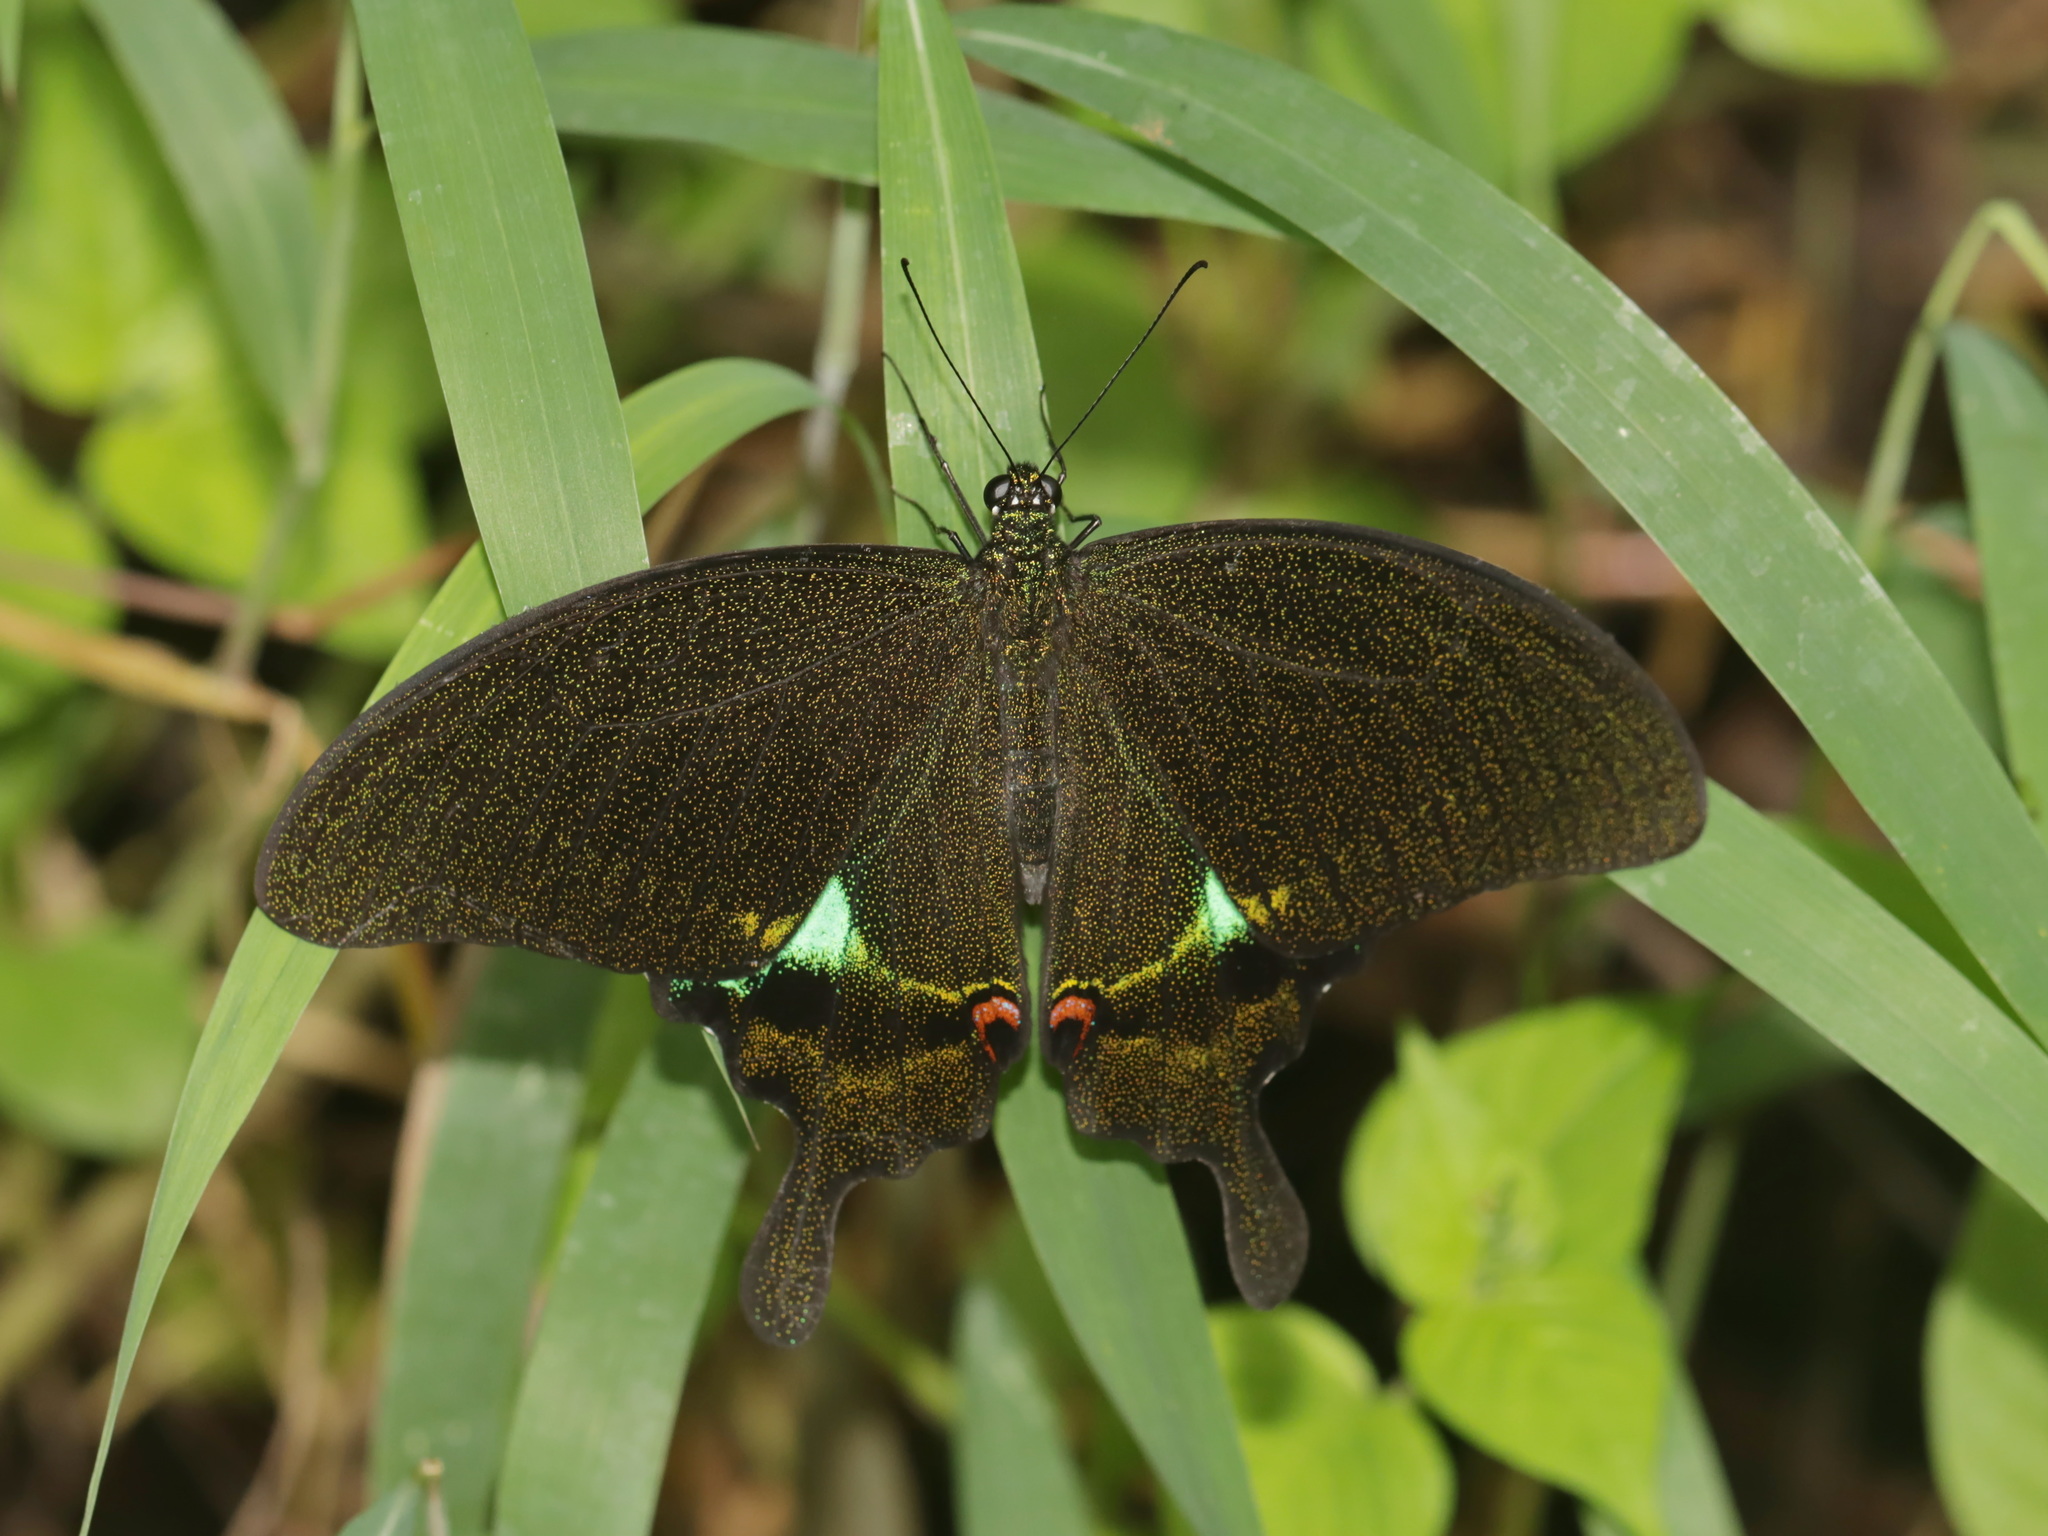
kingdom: Animalia
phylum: Arthropoda
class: Insecta
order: Lepidoptera
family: Papilionidae
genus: Papilio
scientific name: Papilio paris
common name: Paris peacock
